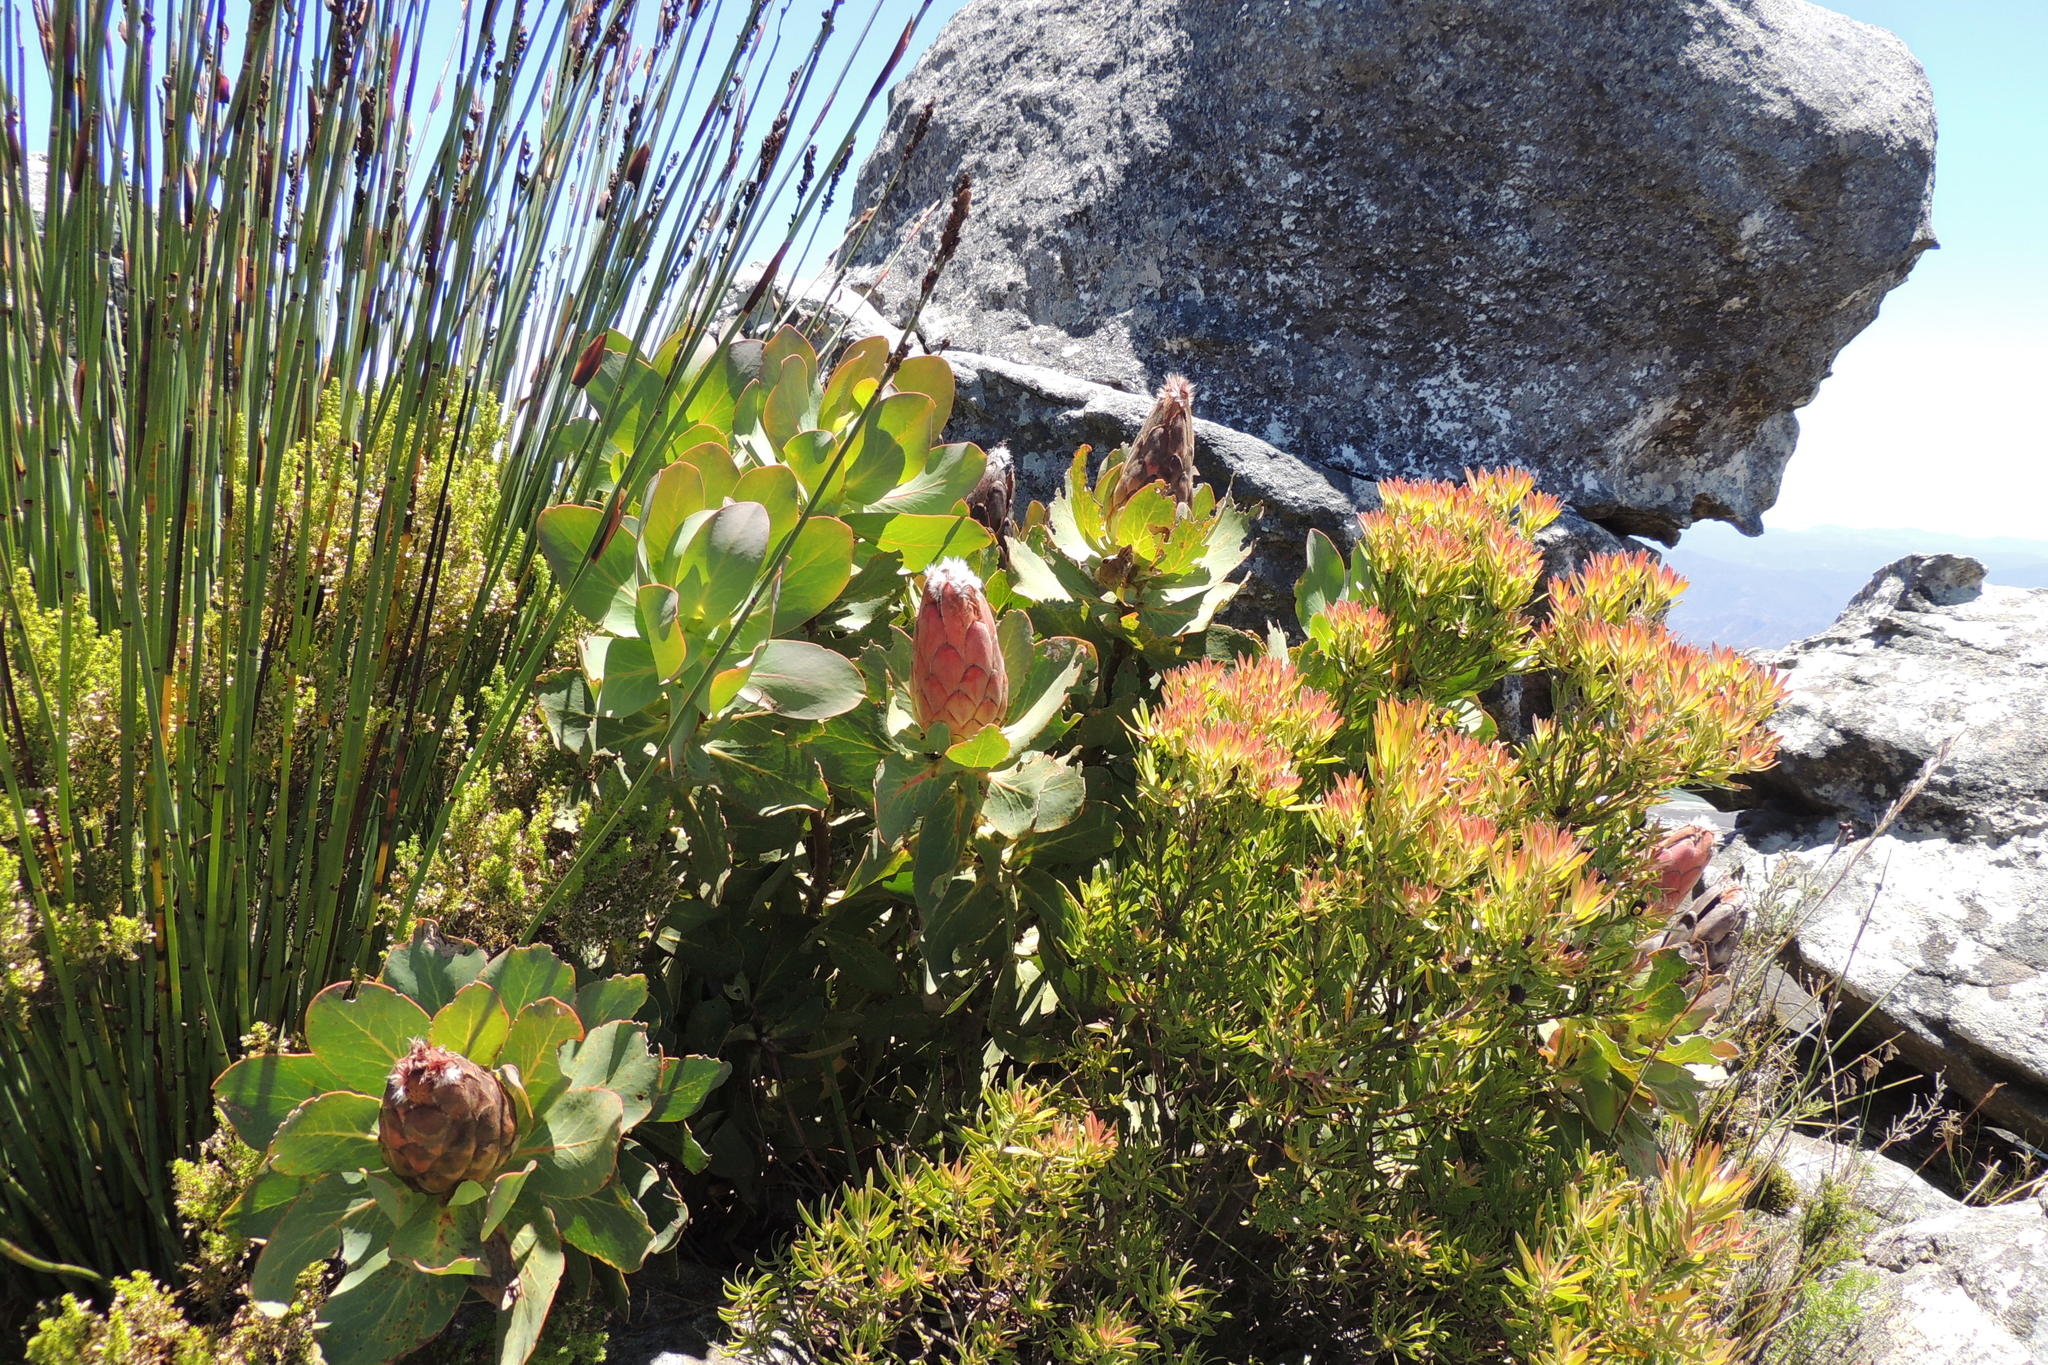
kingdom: Plantae
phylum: Tracheophyta
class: Magnoliopsida
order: Proteales
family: Proteaceae
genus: Protea
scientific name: Protea grandiceps
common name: Red sugarbush
